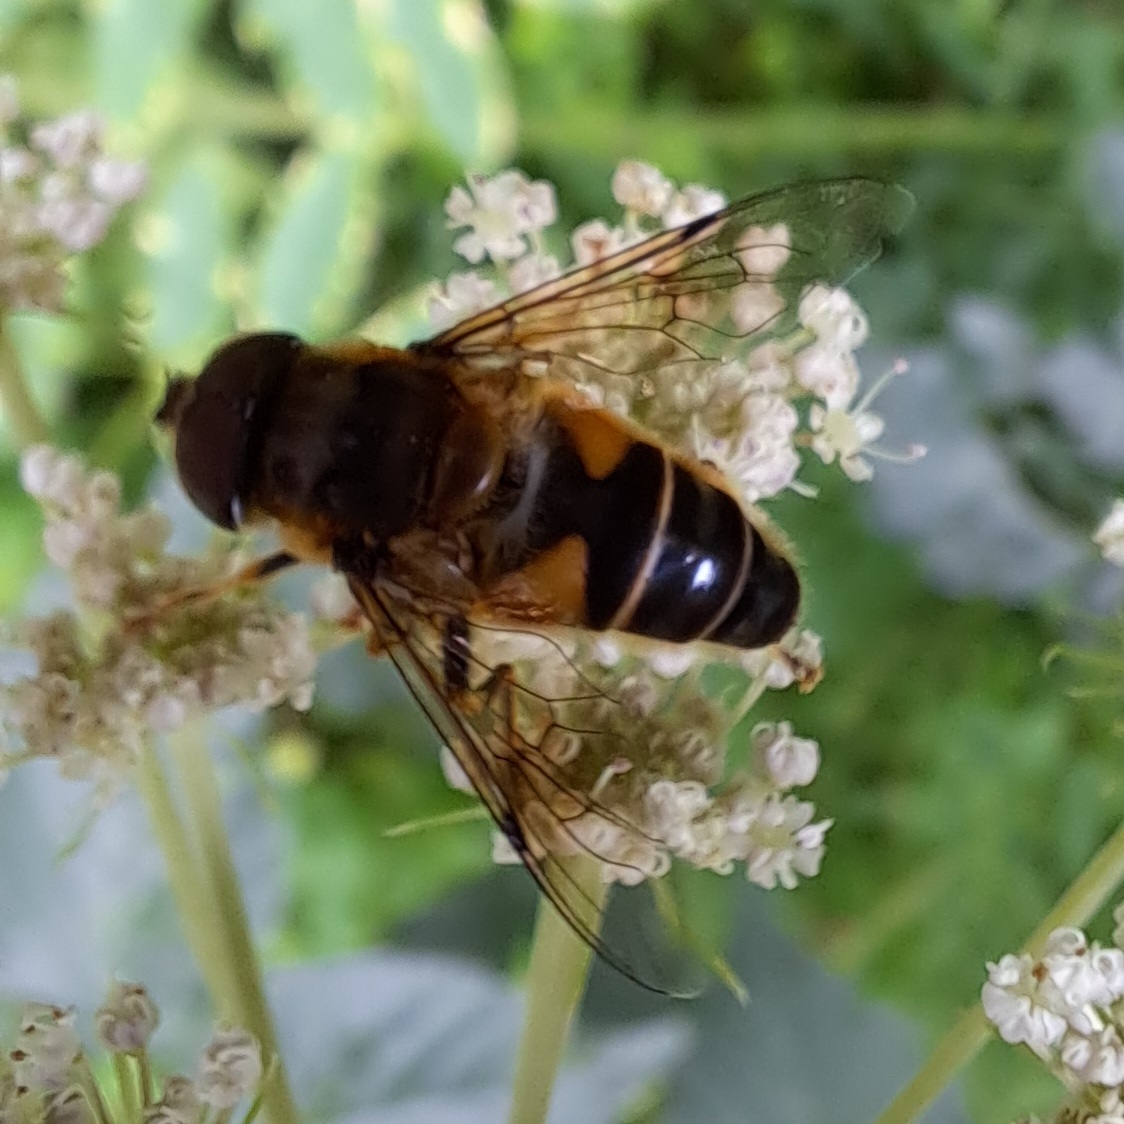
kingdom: Animalia
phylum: Arthropoda
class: Insecta
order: Diptera
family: Syrphidae
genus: Eristalis
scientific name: Eristalis pertinax
